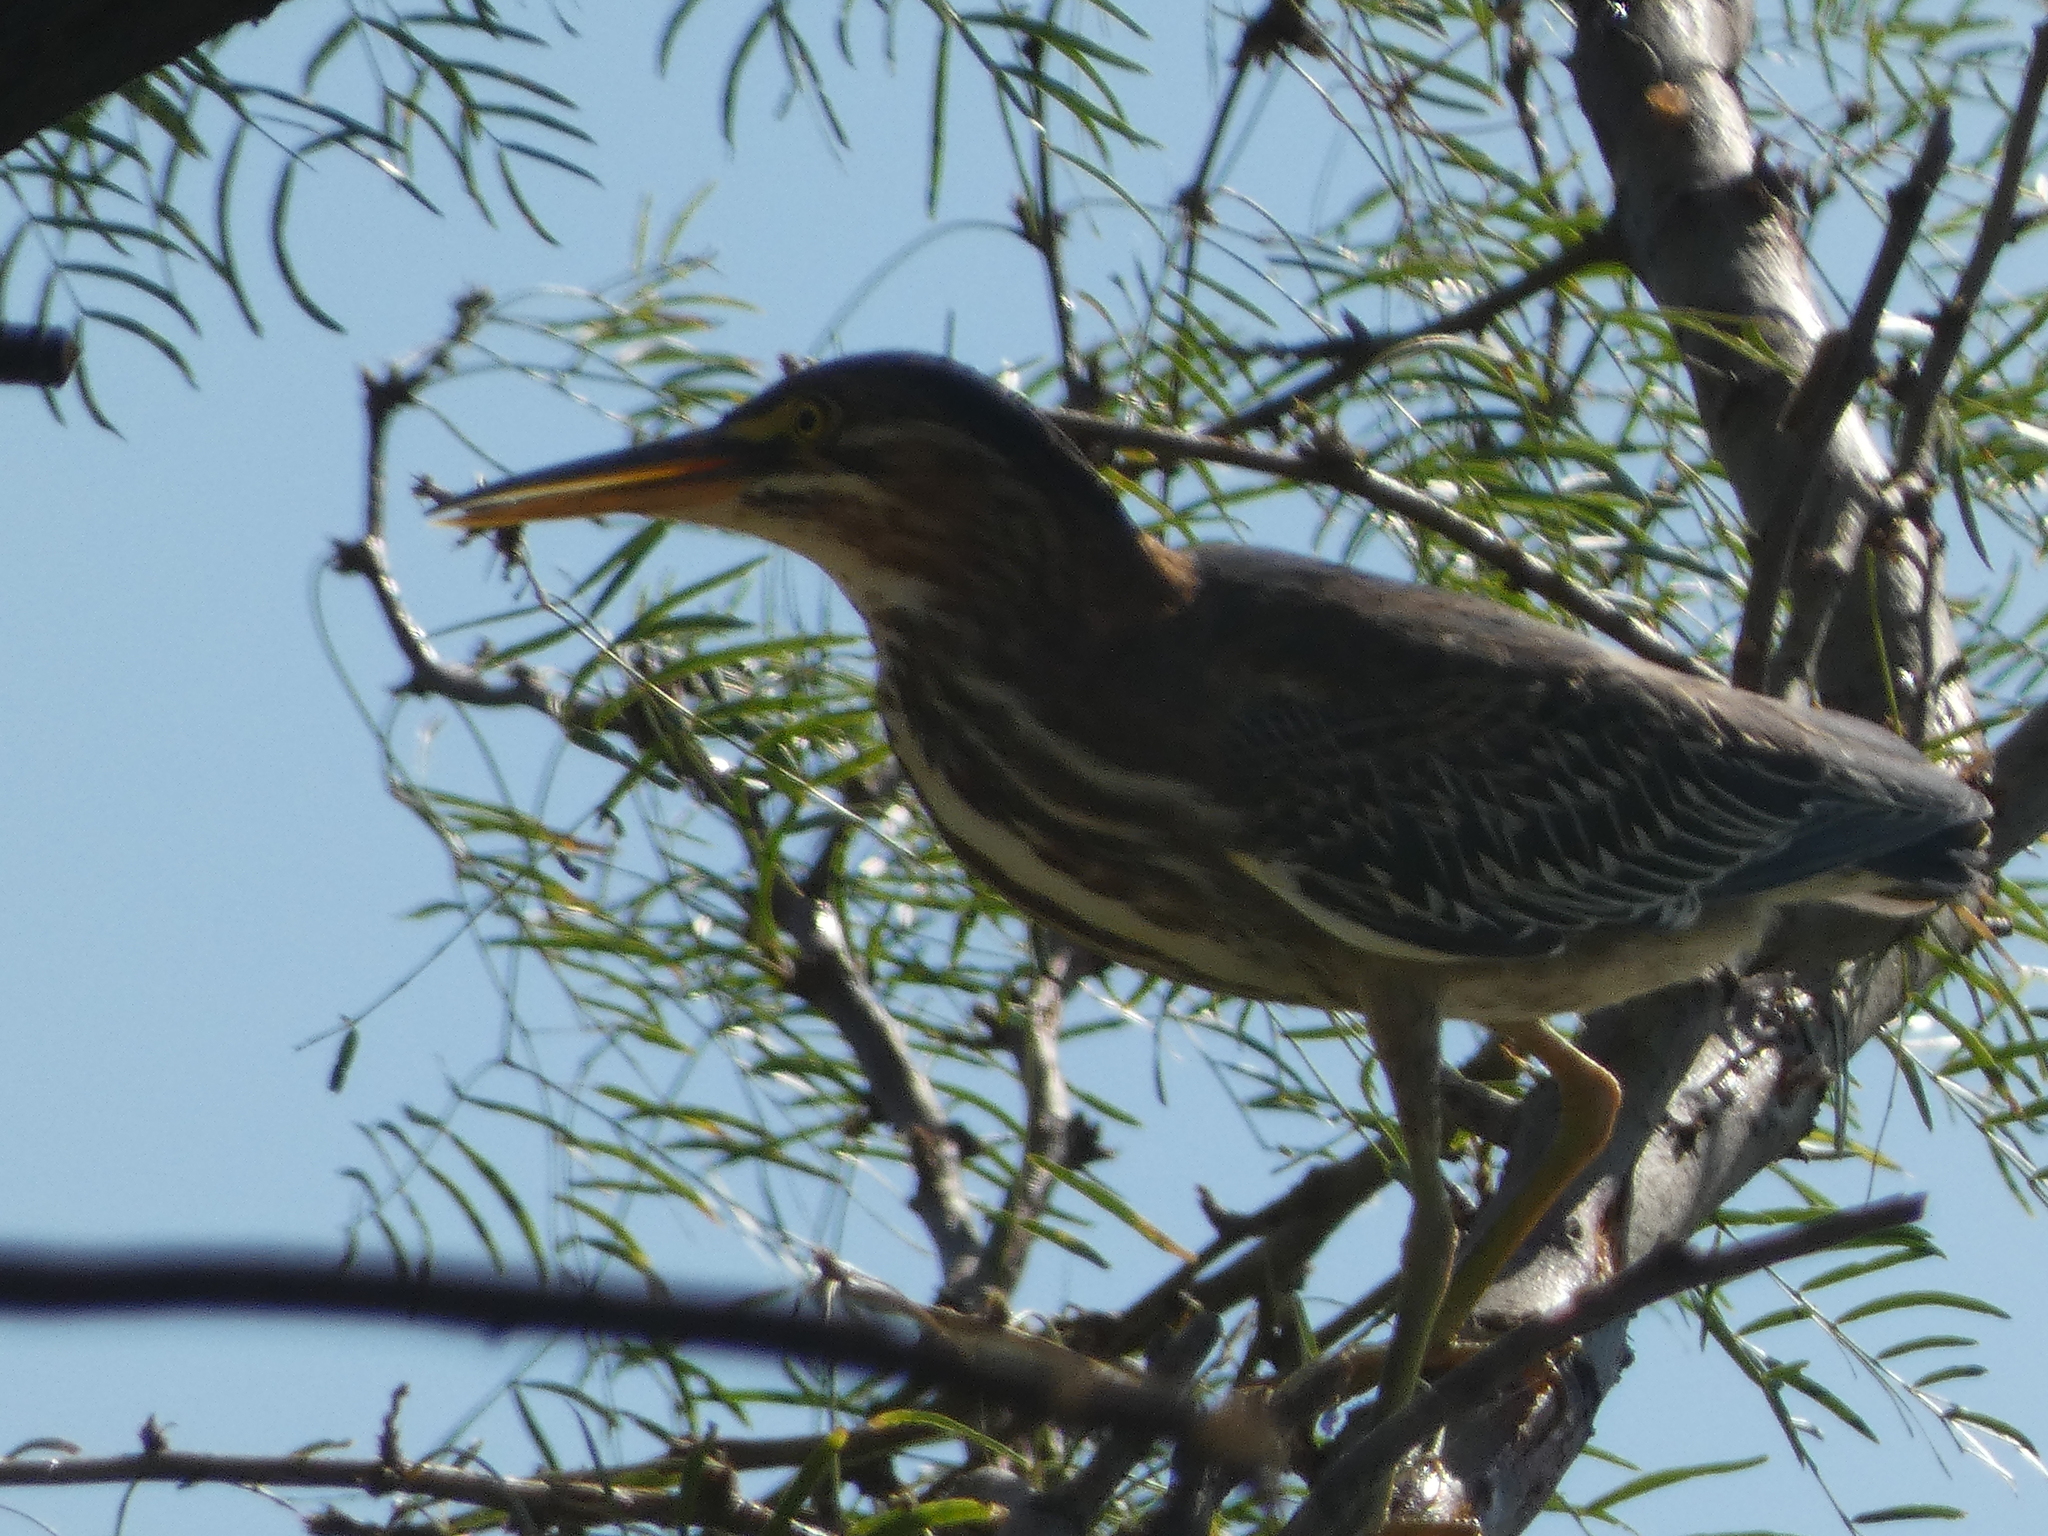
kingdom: Animalia
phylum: Chordata
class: Aves
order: Pelecaniformes
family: Ardeidae
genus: Butorides
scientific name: Butorides virescens
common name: Green heron
